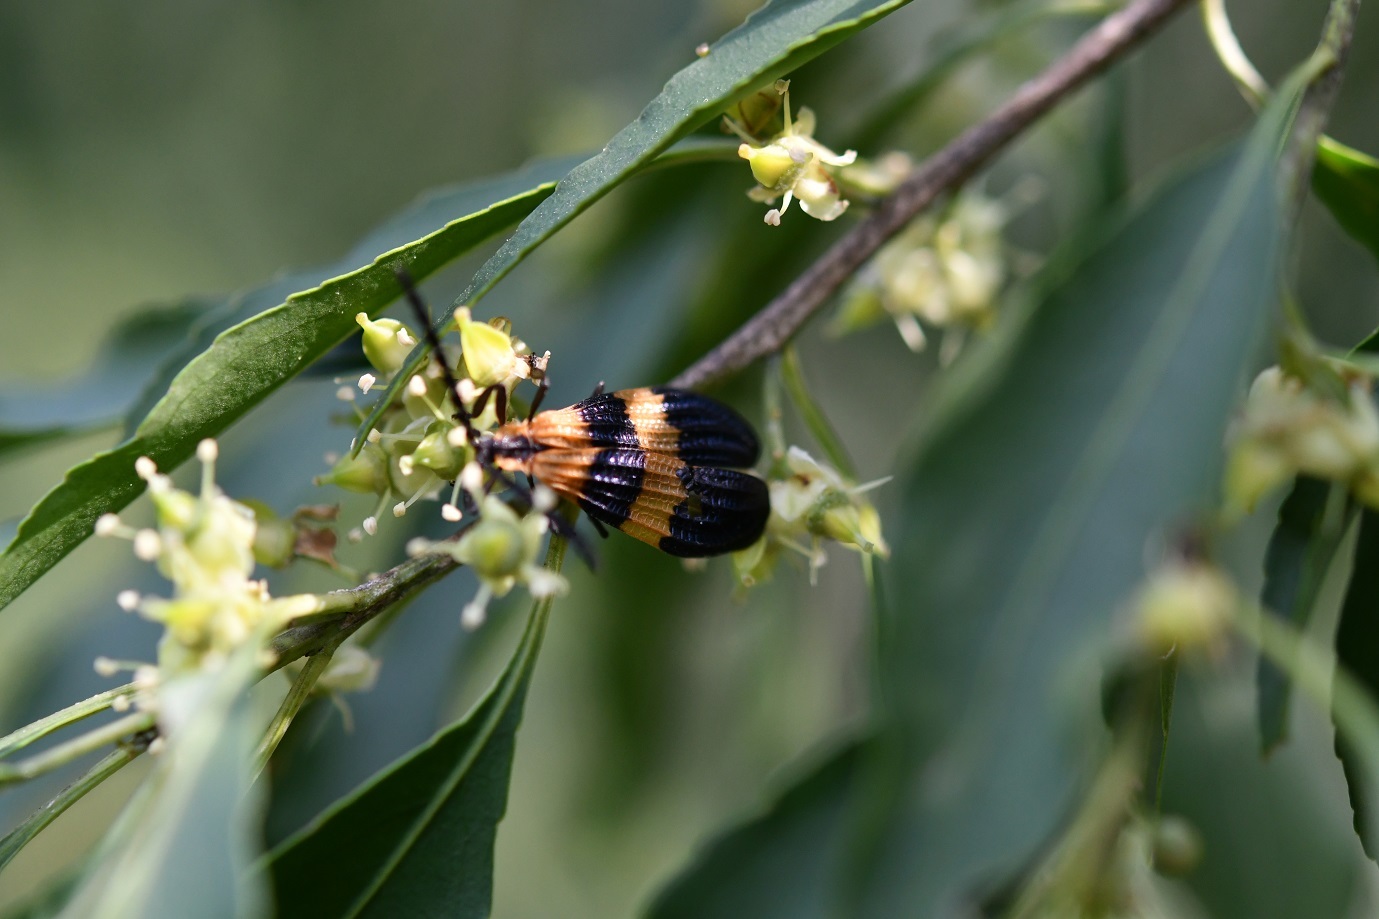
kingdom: Animalia
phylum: Arthropoda
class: Insecta
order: Coleoptera
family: Lycidae
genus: Calopteron
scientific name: Calopteron
